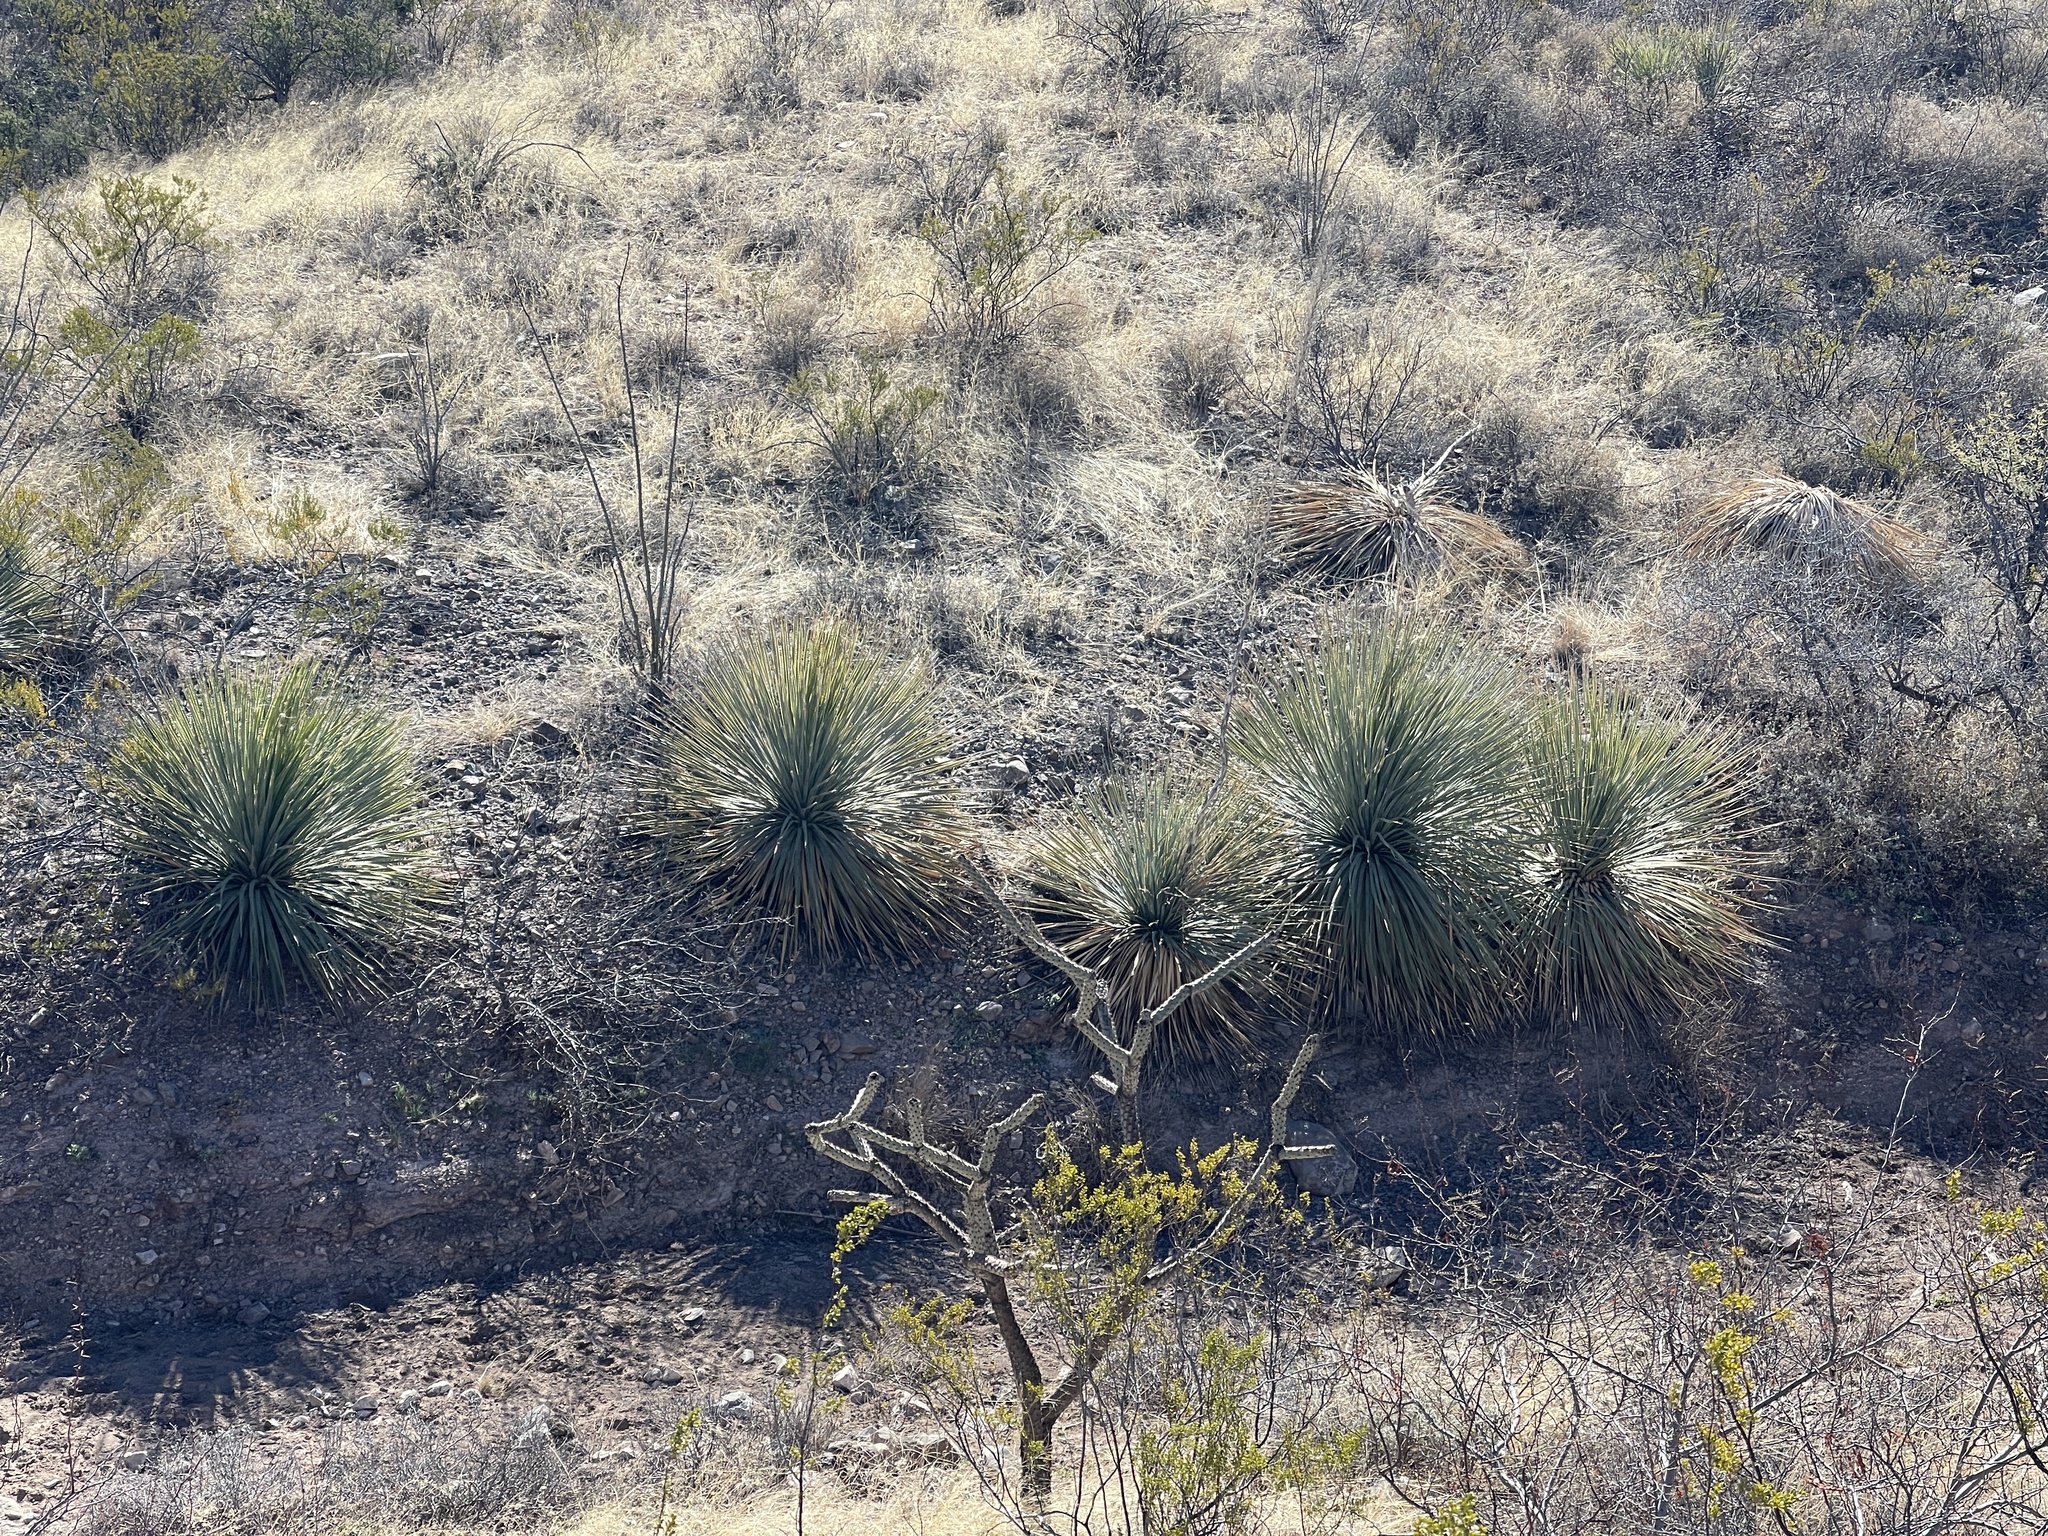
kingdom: Plantae
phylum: Tracheophyta
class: Liliopsida
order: Asparagales
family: Asparagaceae
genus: Dasylirion
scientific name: Dasylirion wheeleri
